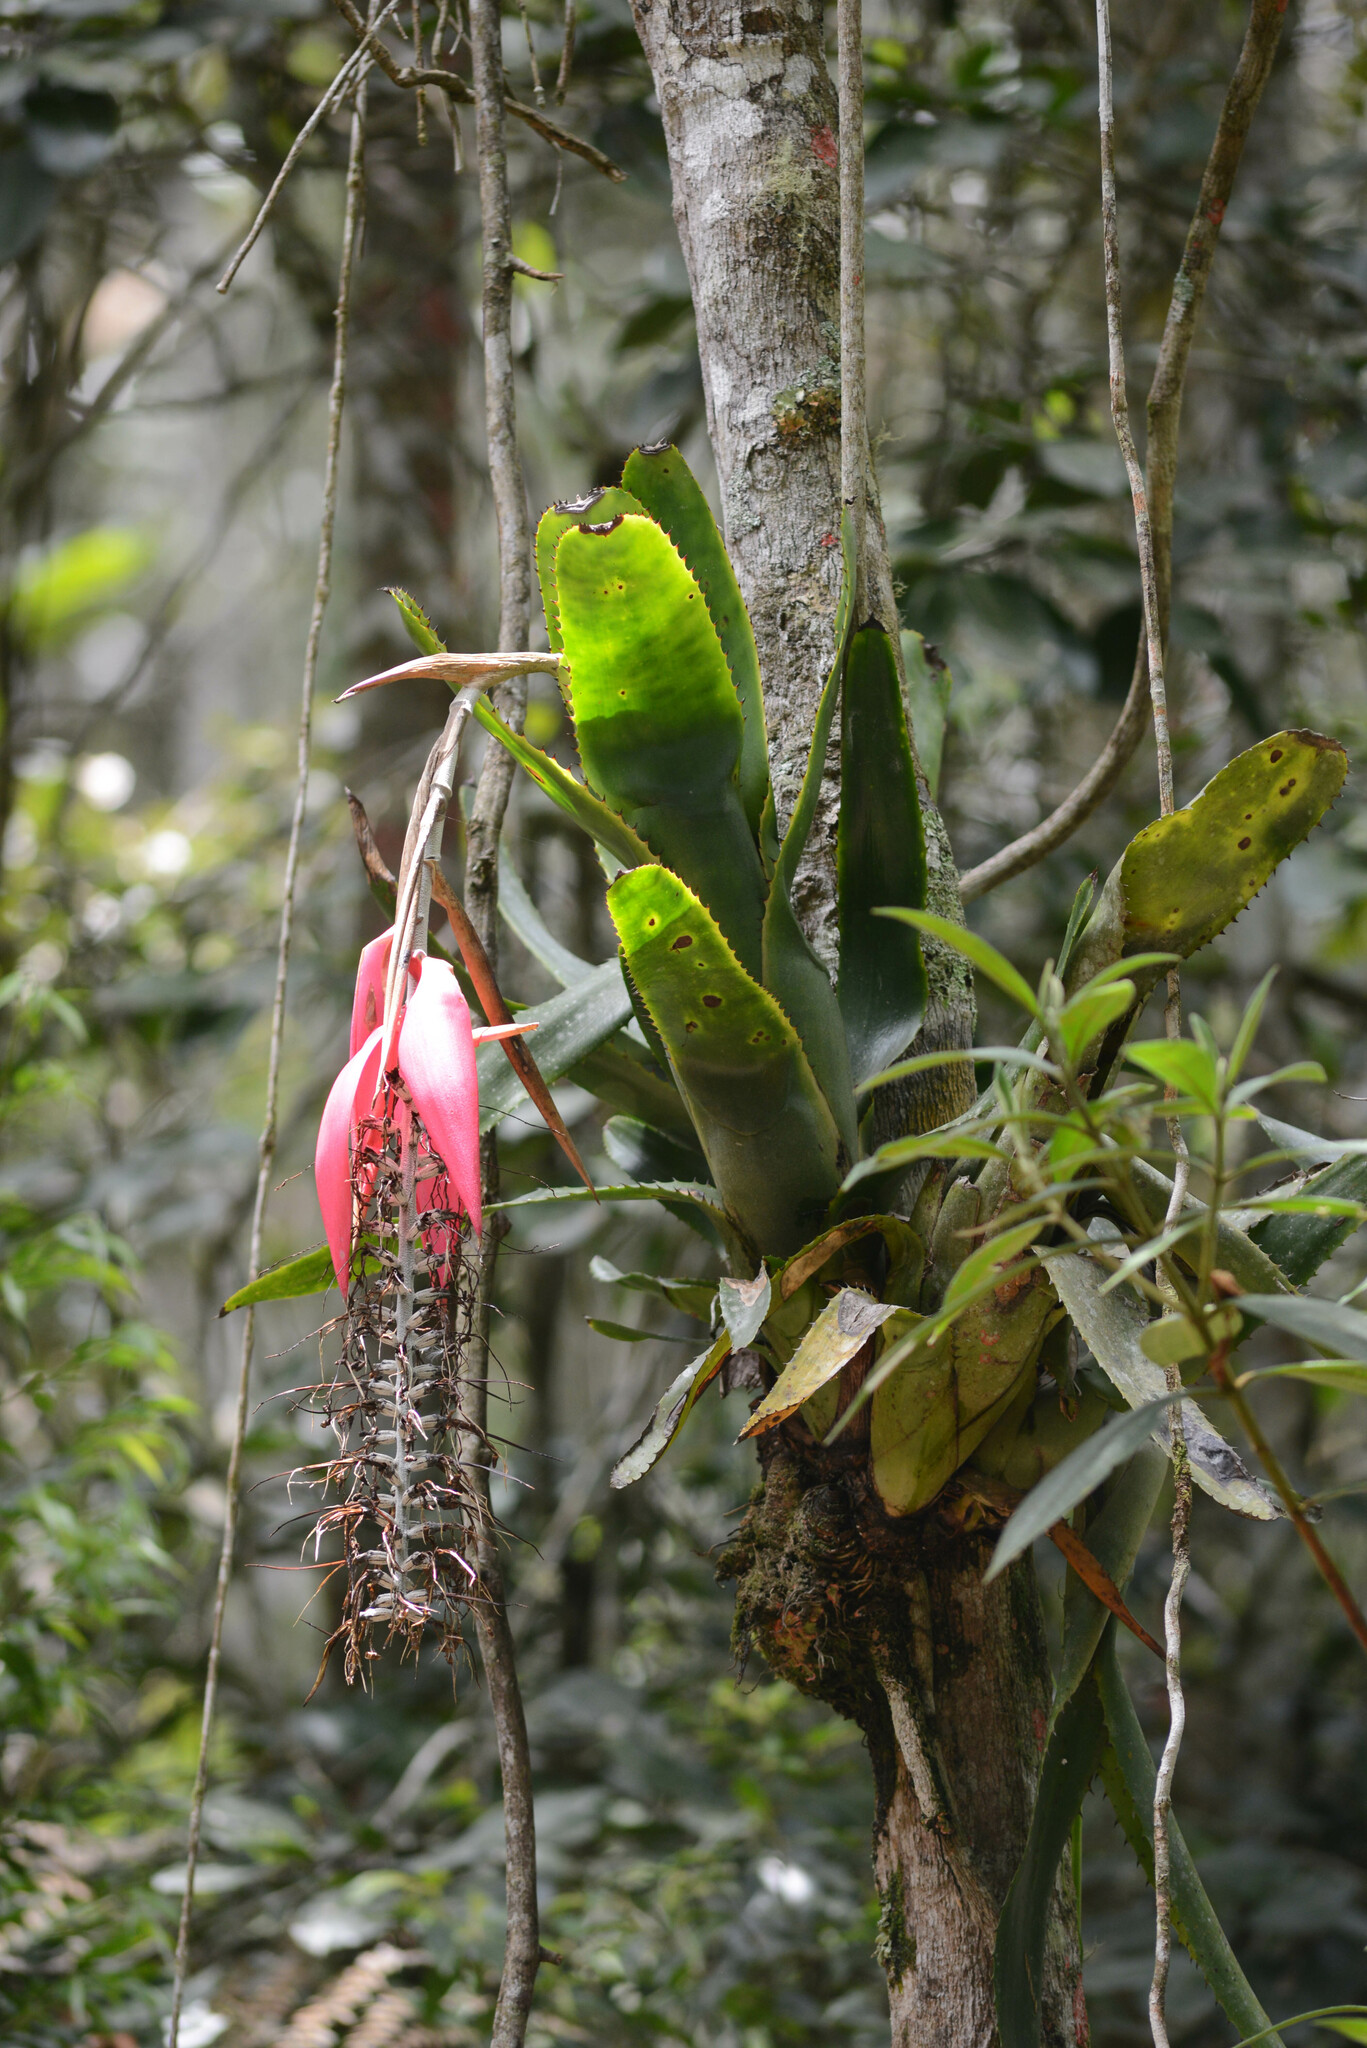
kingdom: Plantae
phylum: Tracheophyta
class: Liliopsida
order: Poales
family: Bromeliaceae
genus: Billbergia
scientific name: Billbergia alfonsi-joannis
